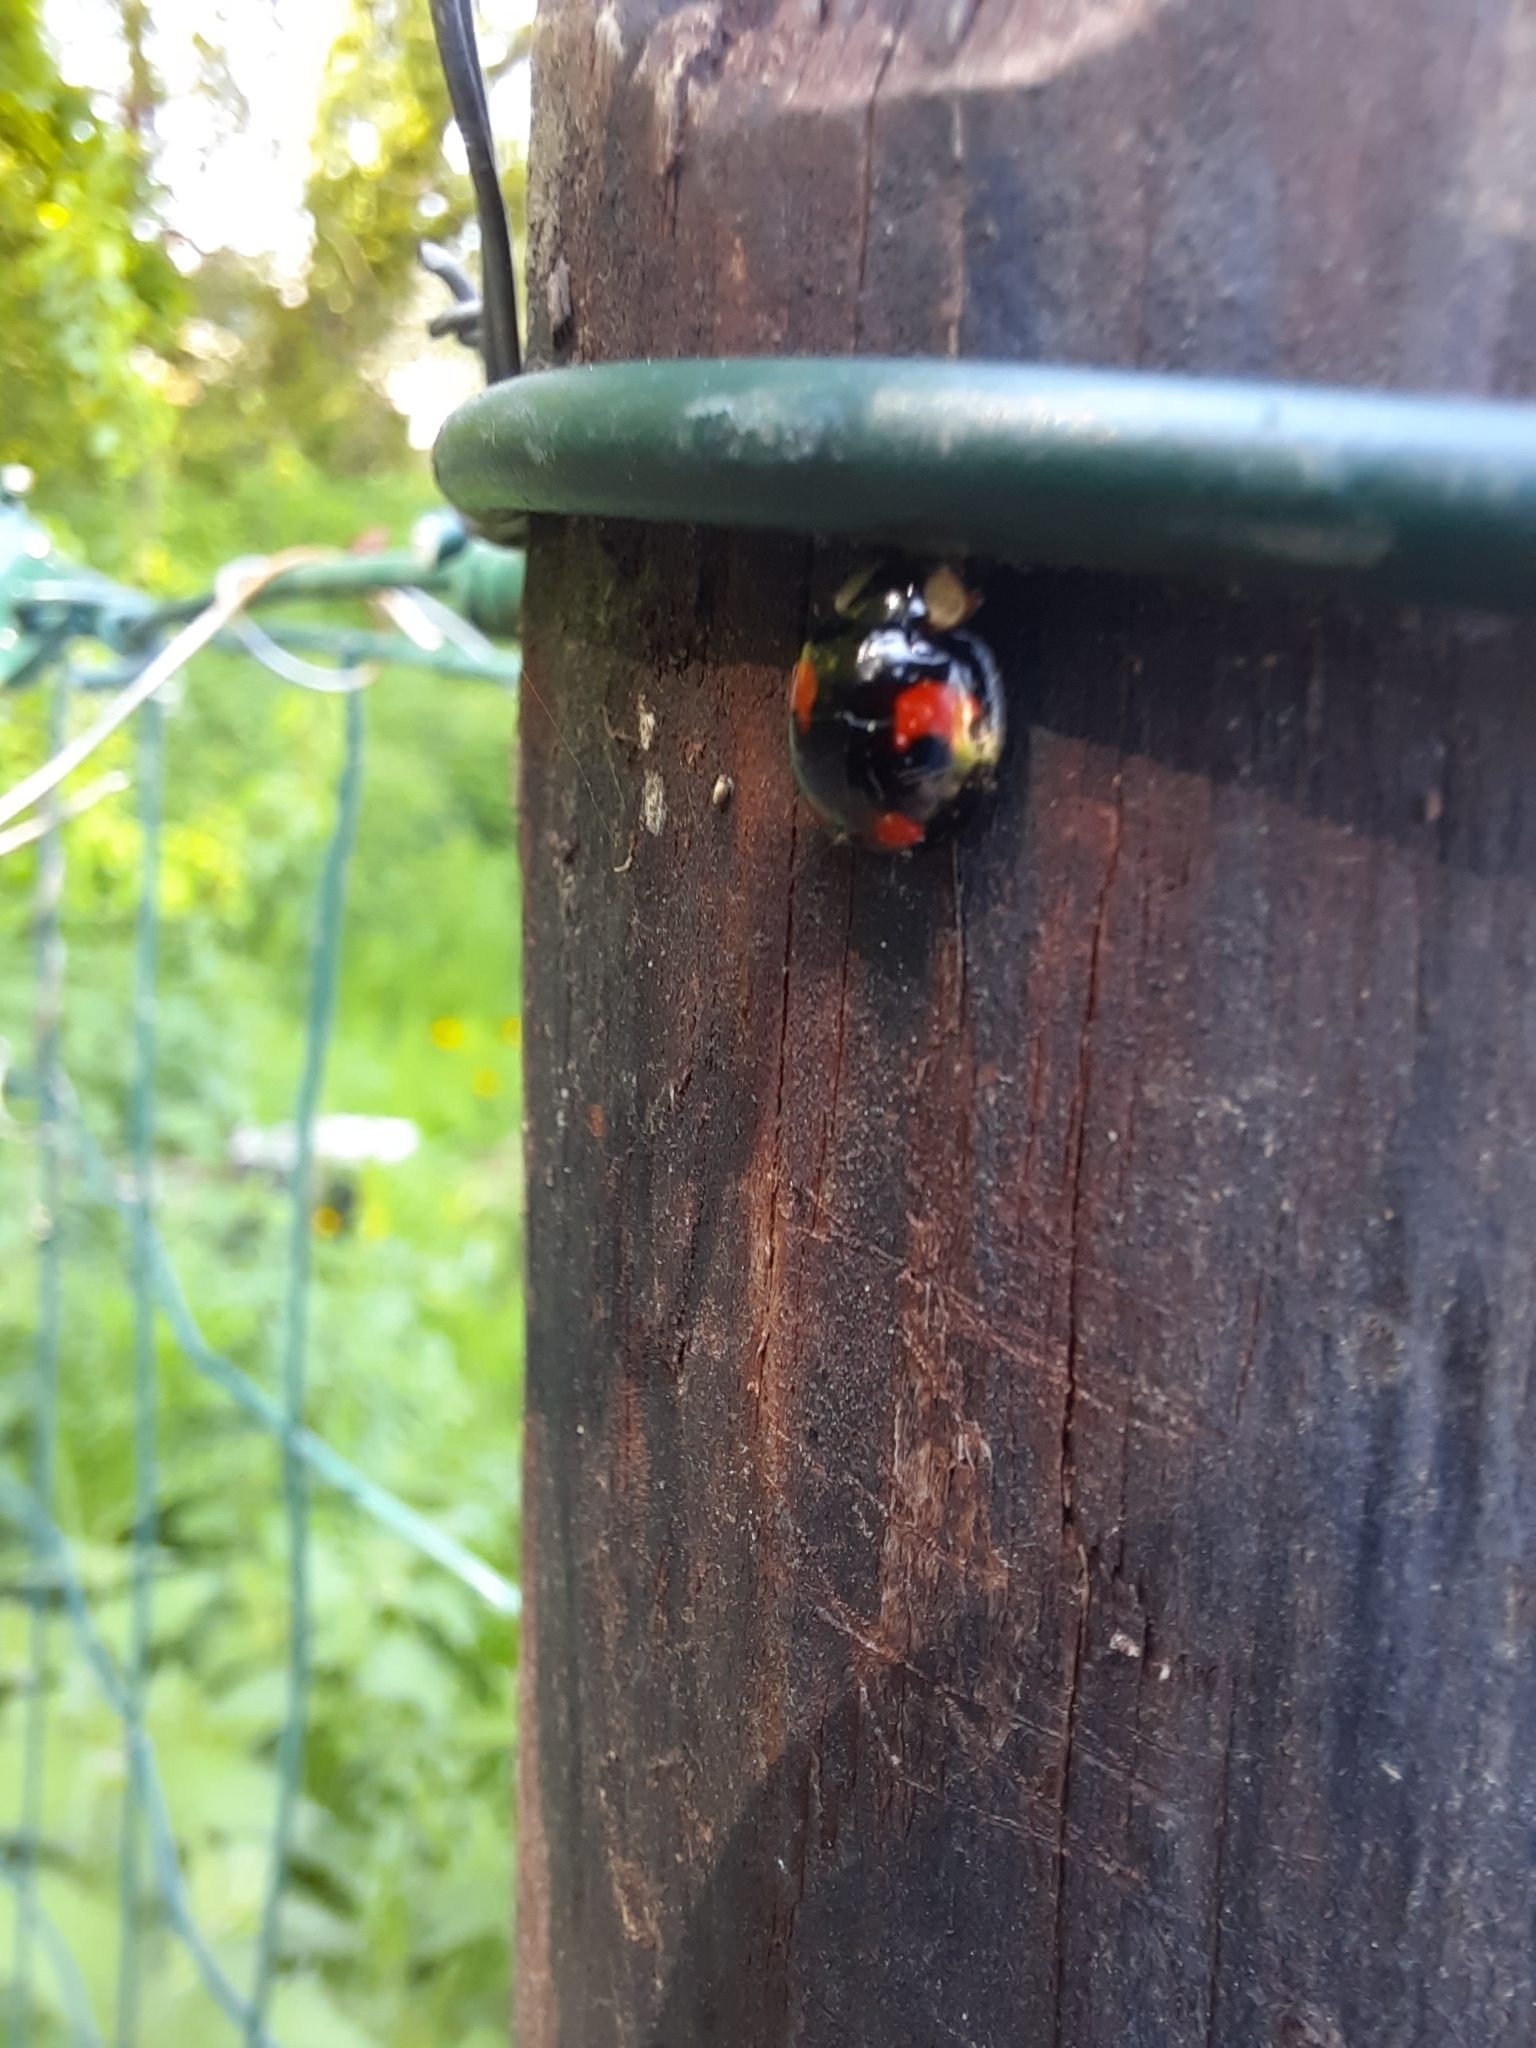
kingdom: Animalia
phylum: Arthropoda
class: Insecta
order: Coleoptera
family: Coccinellidae
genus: Harmonia
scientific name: Harmonia axyridis
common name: Harlequin ladybird
